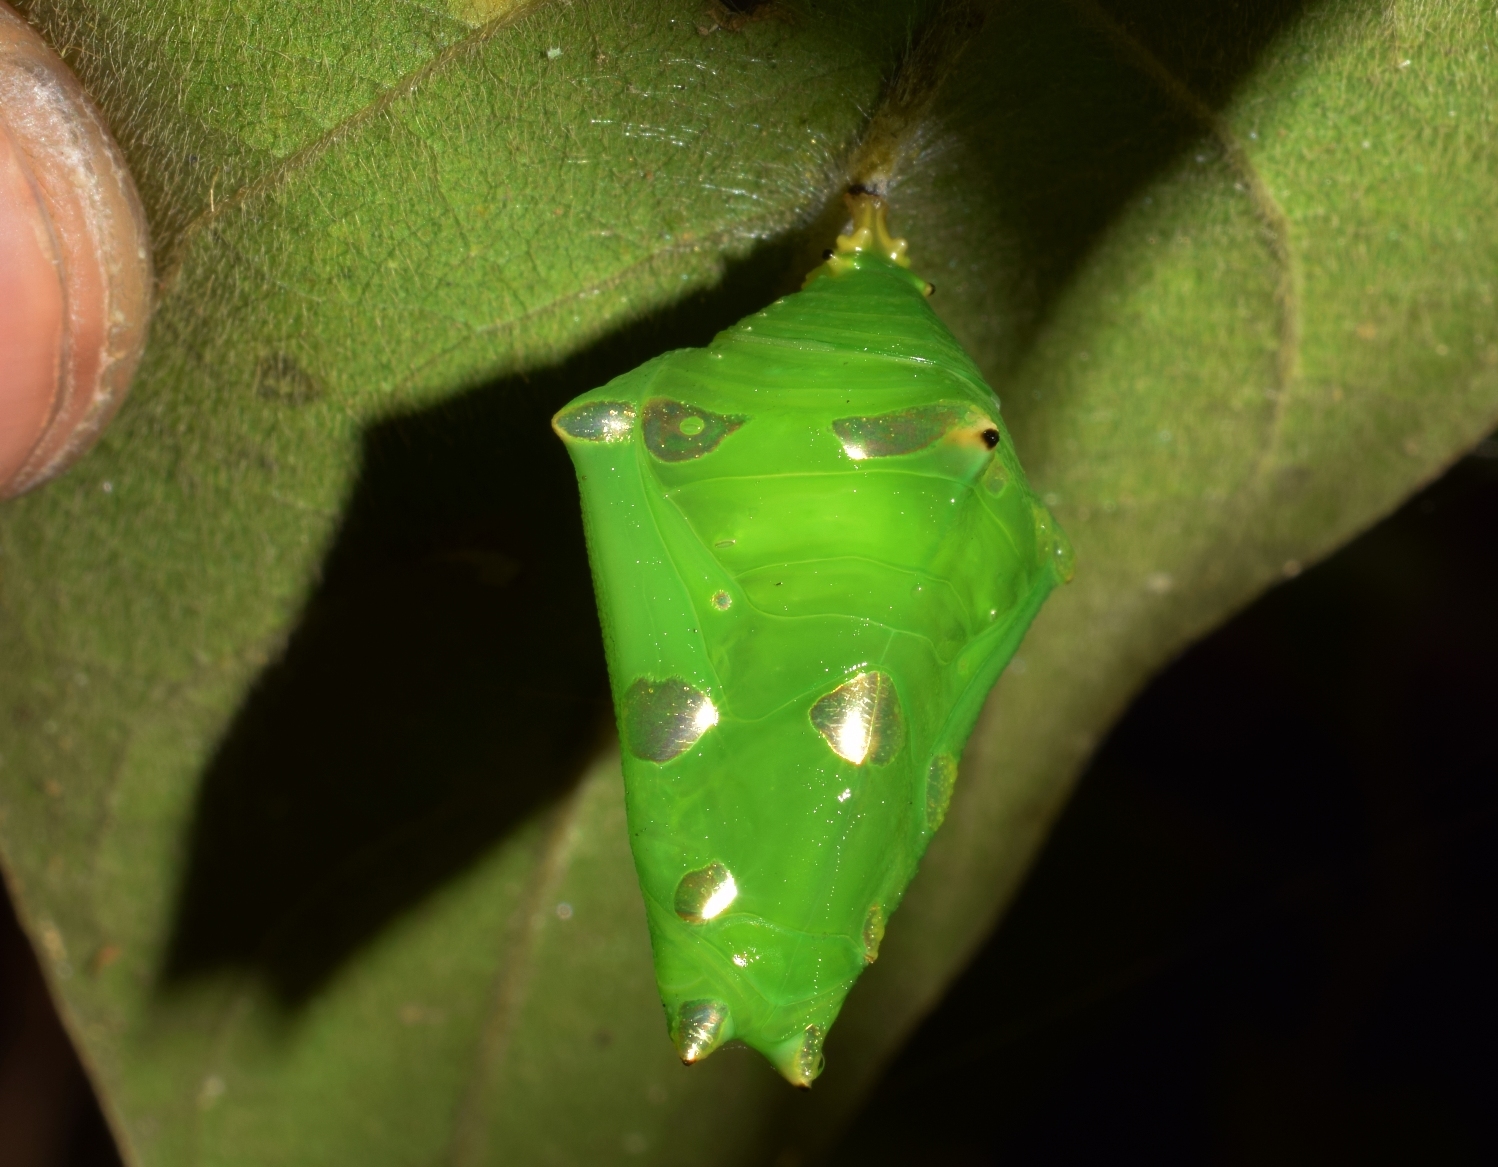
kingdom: Animalia
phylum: Arthropoda
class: Insecta
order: Lepidoptera
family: Nymphalidae
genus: Tanaecia
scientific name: Tanaecia lepidea
